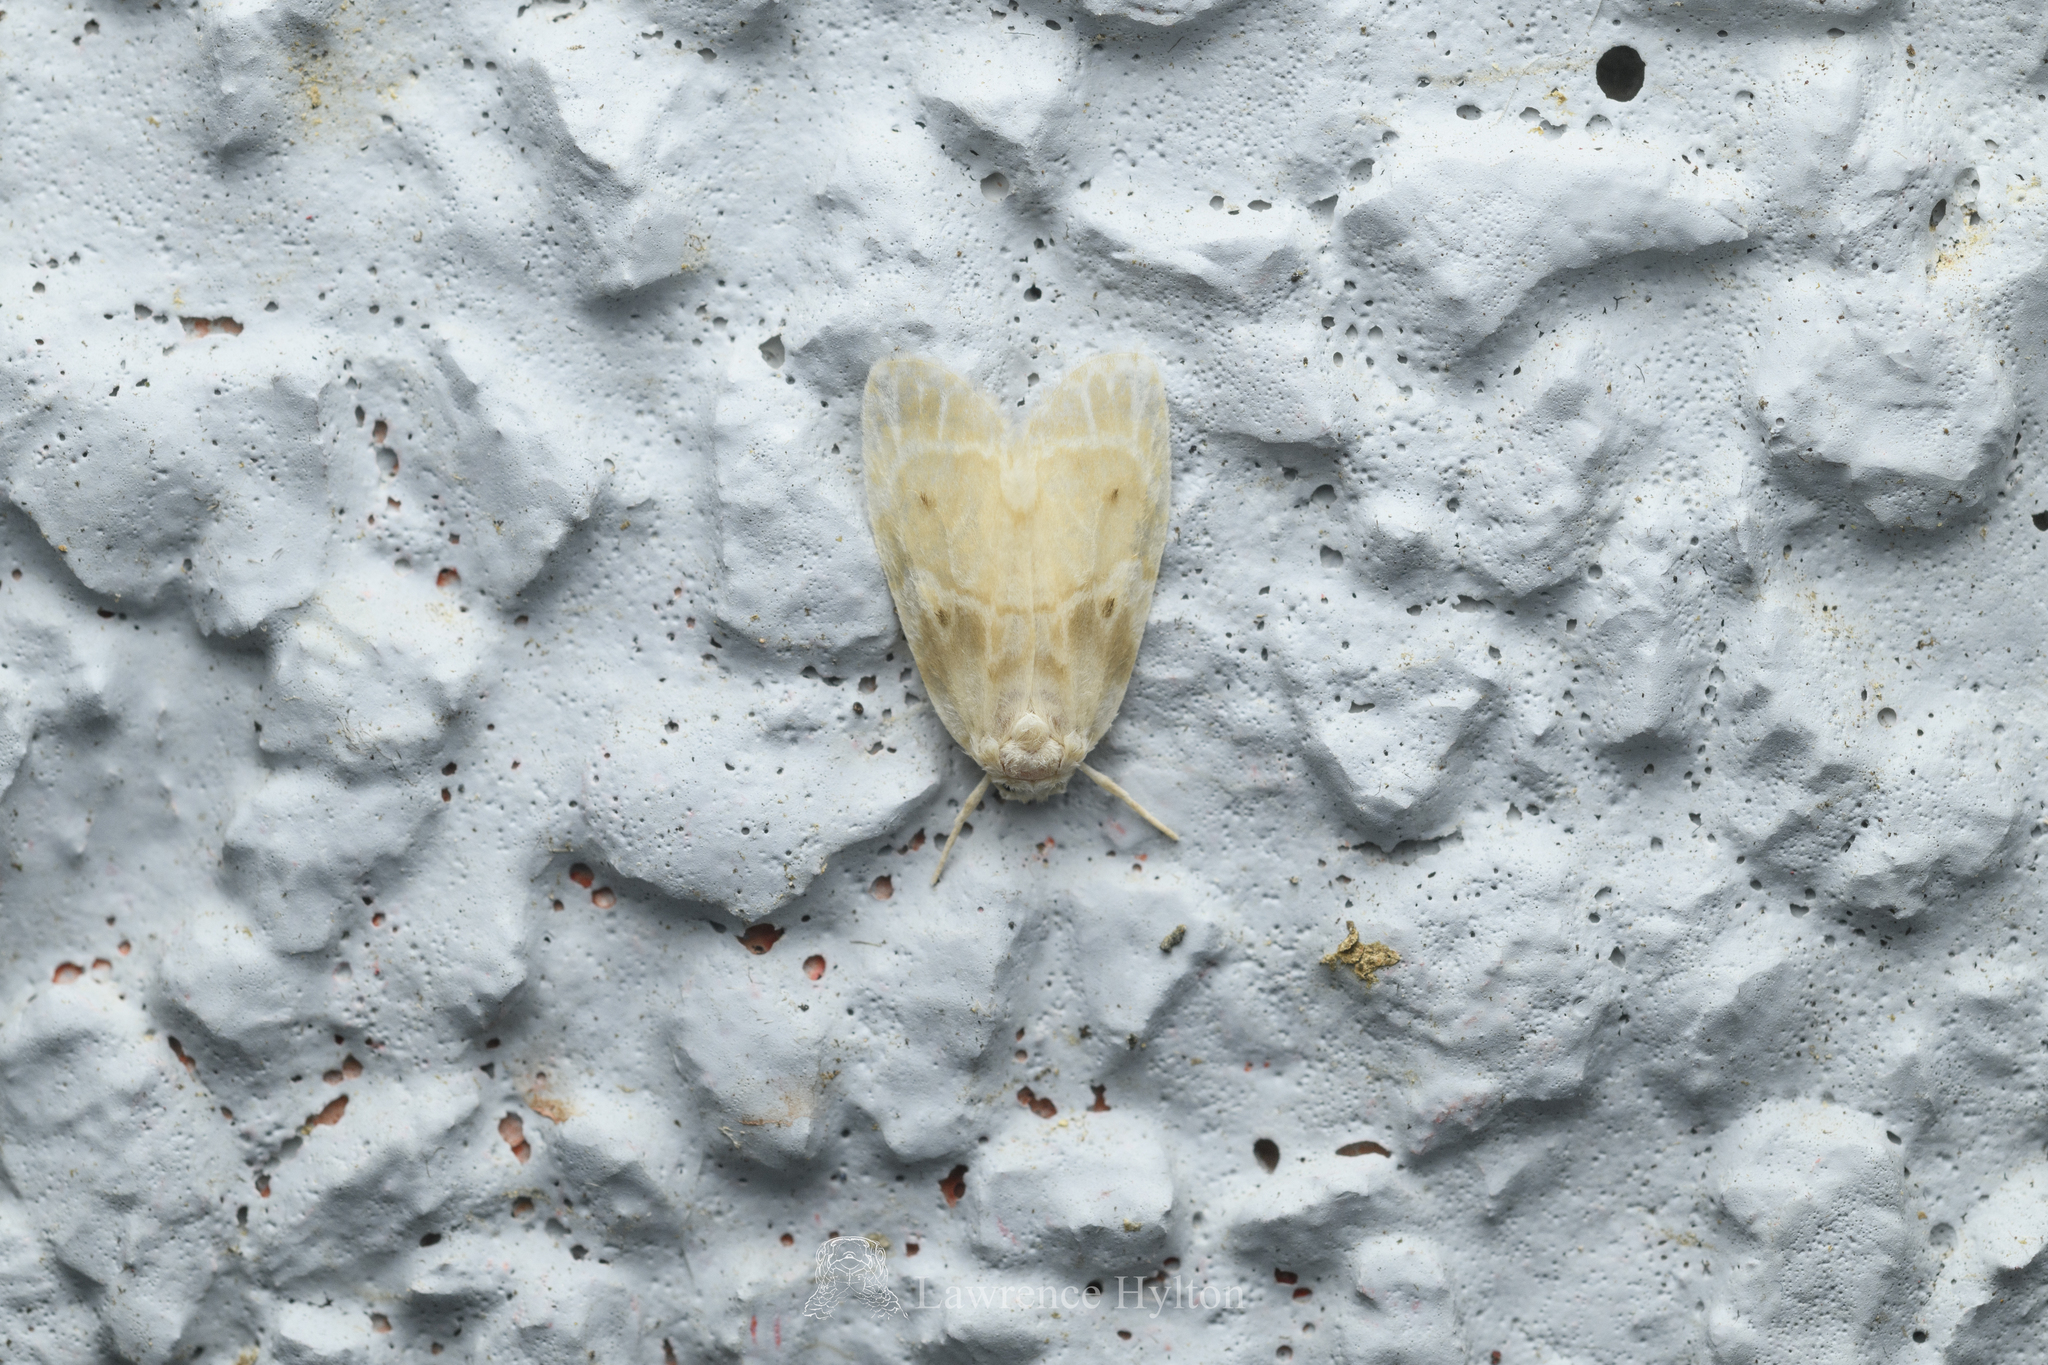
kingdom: Animalia
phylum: Arthropoda
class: Insecta
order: Lepidoptera
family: Erebidae
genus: Schistophleps
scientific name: Schistophleps bipuncta
